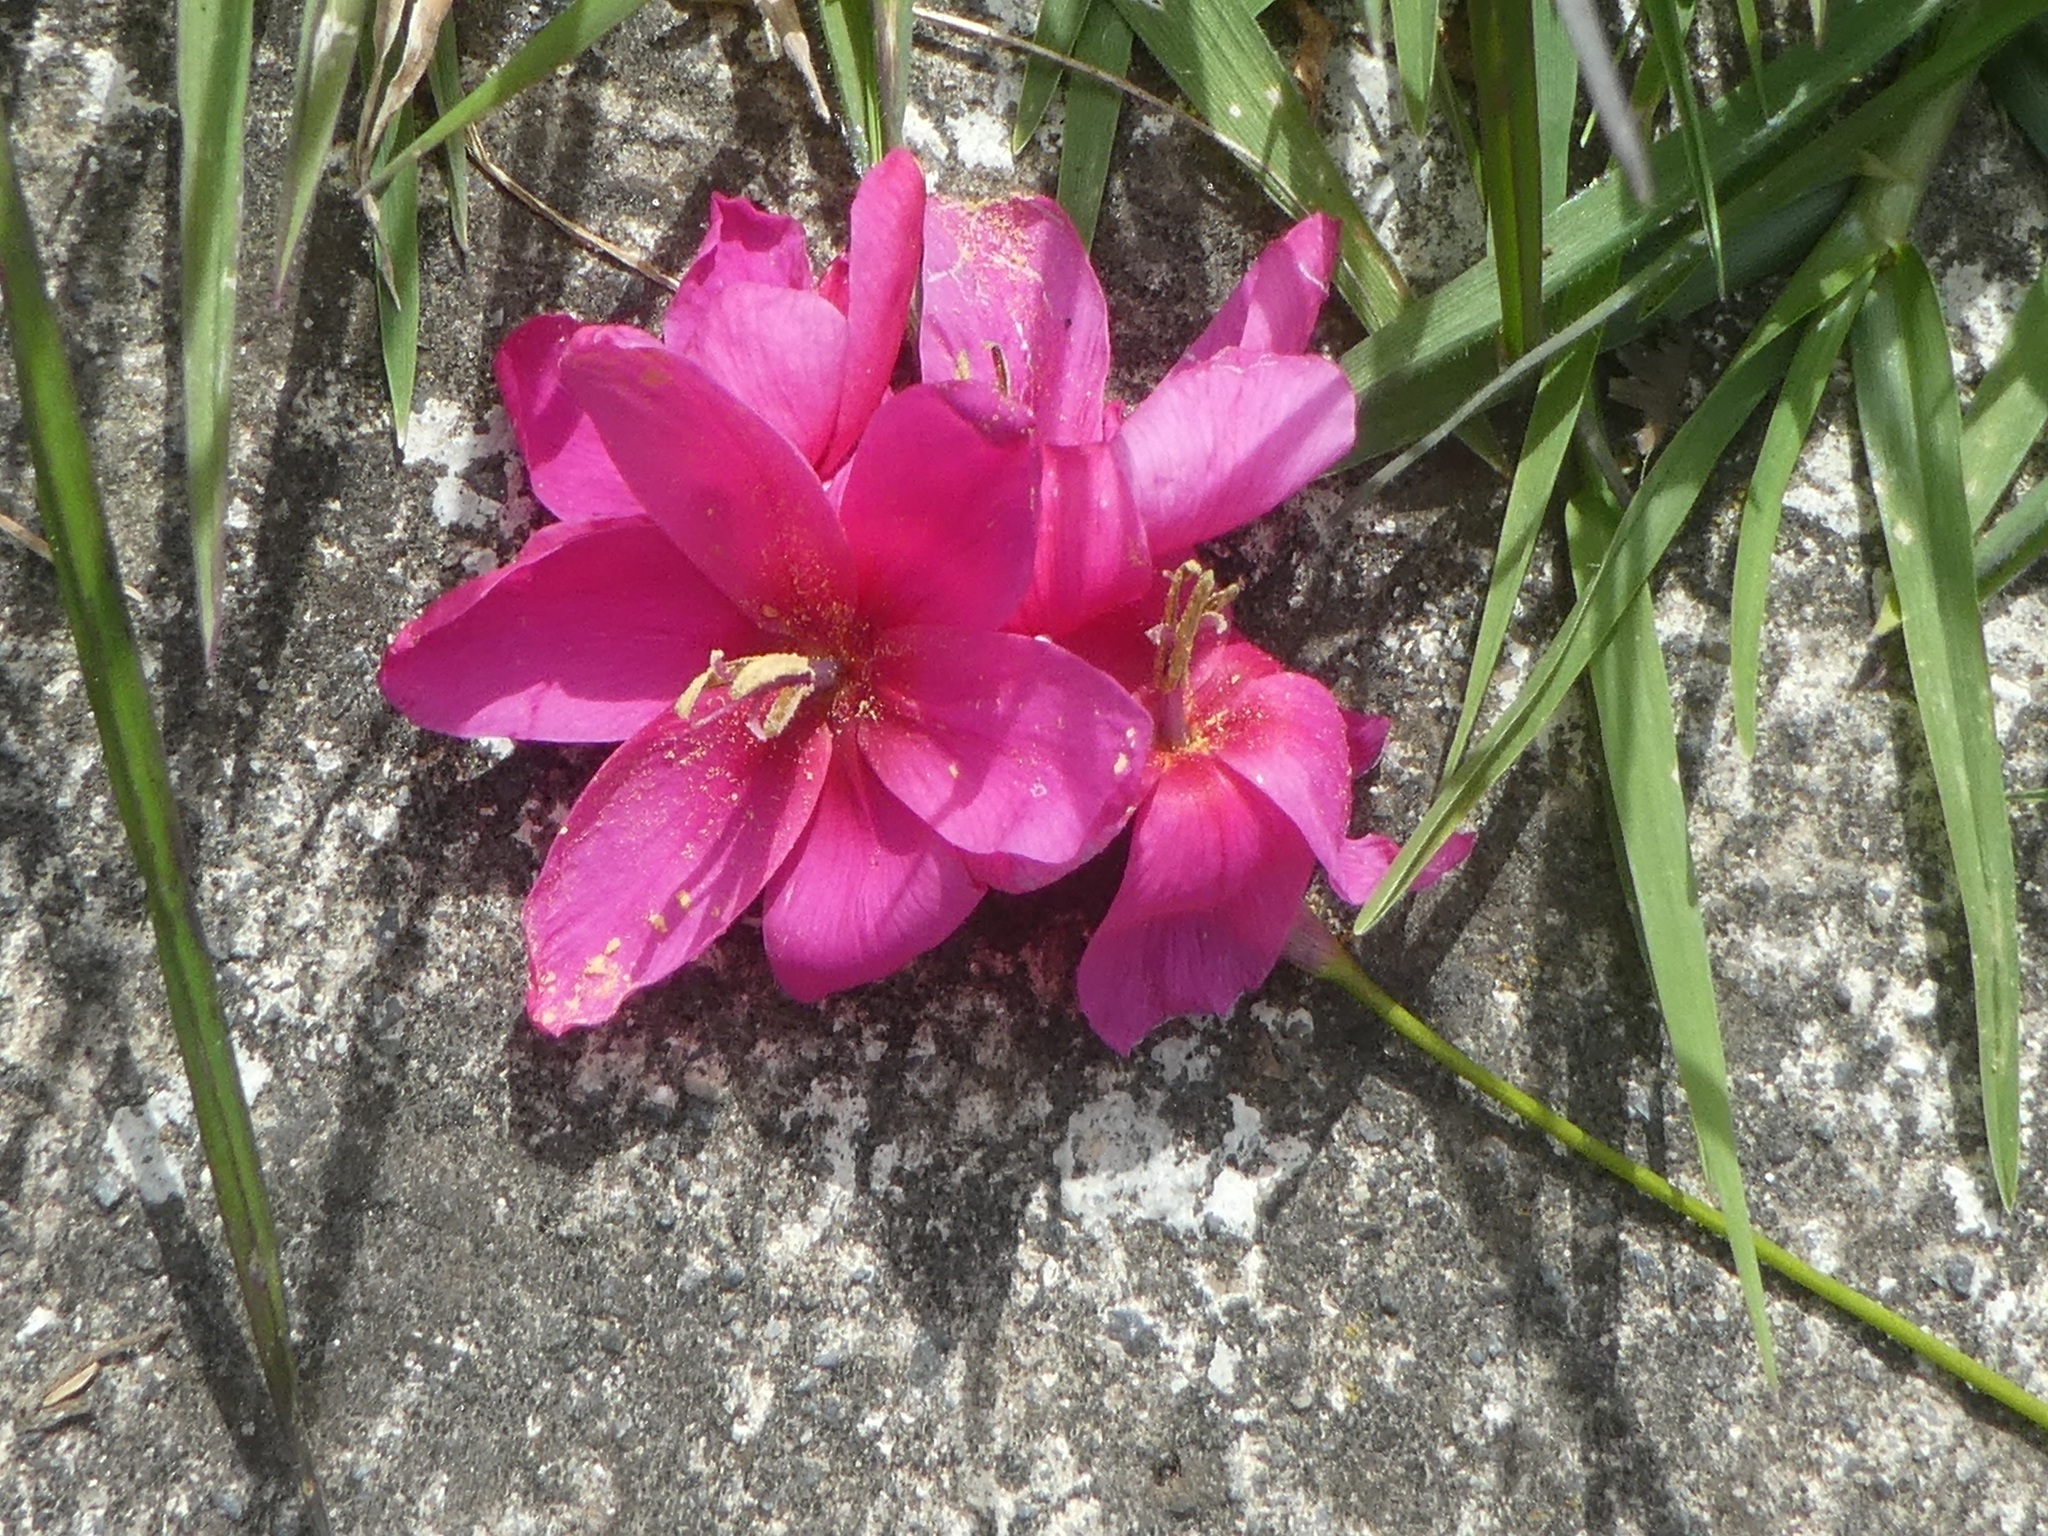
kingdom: Plantae
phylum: Tracheophyta
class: Liliopsida
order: Asparagales
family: Iridaceae
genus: Ixia
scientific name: Ixia maculata
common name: Spotted african cornlily
